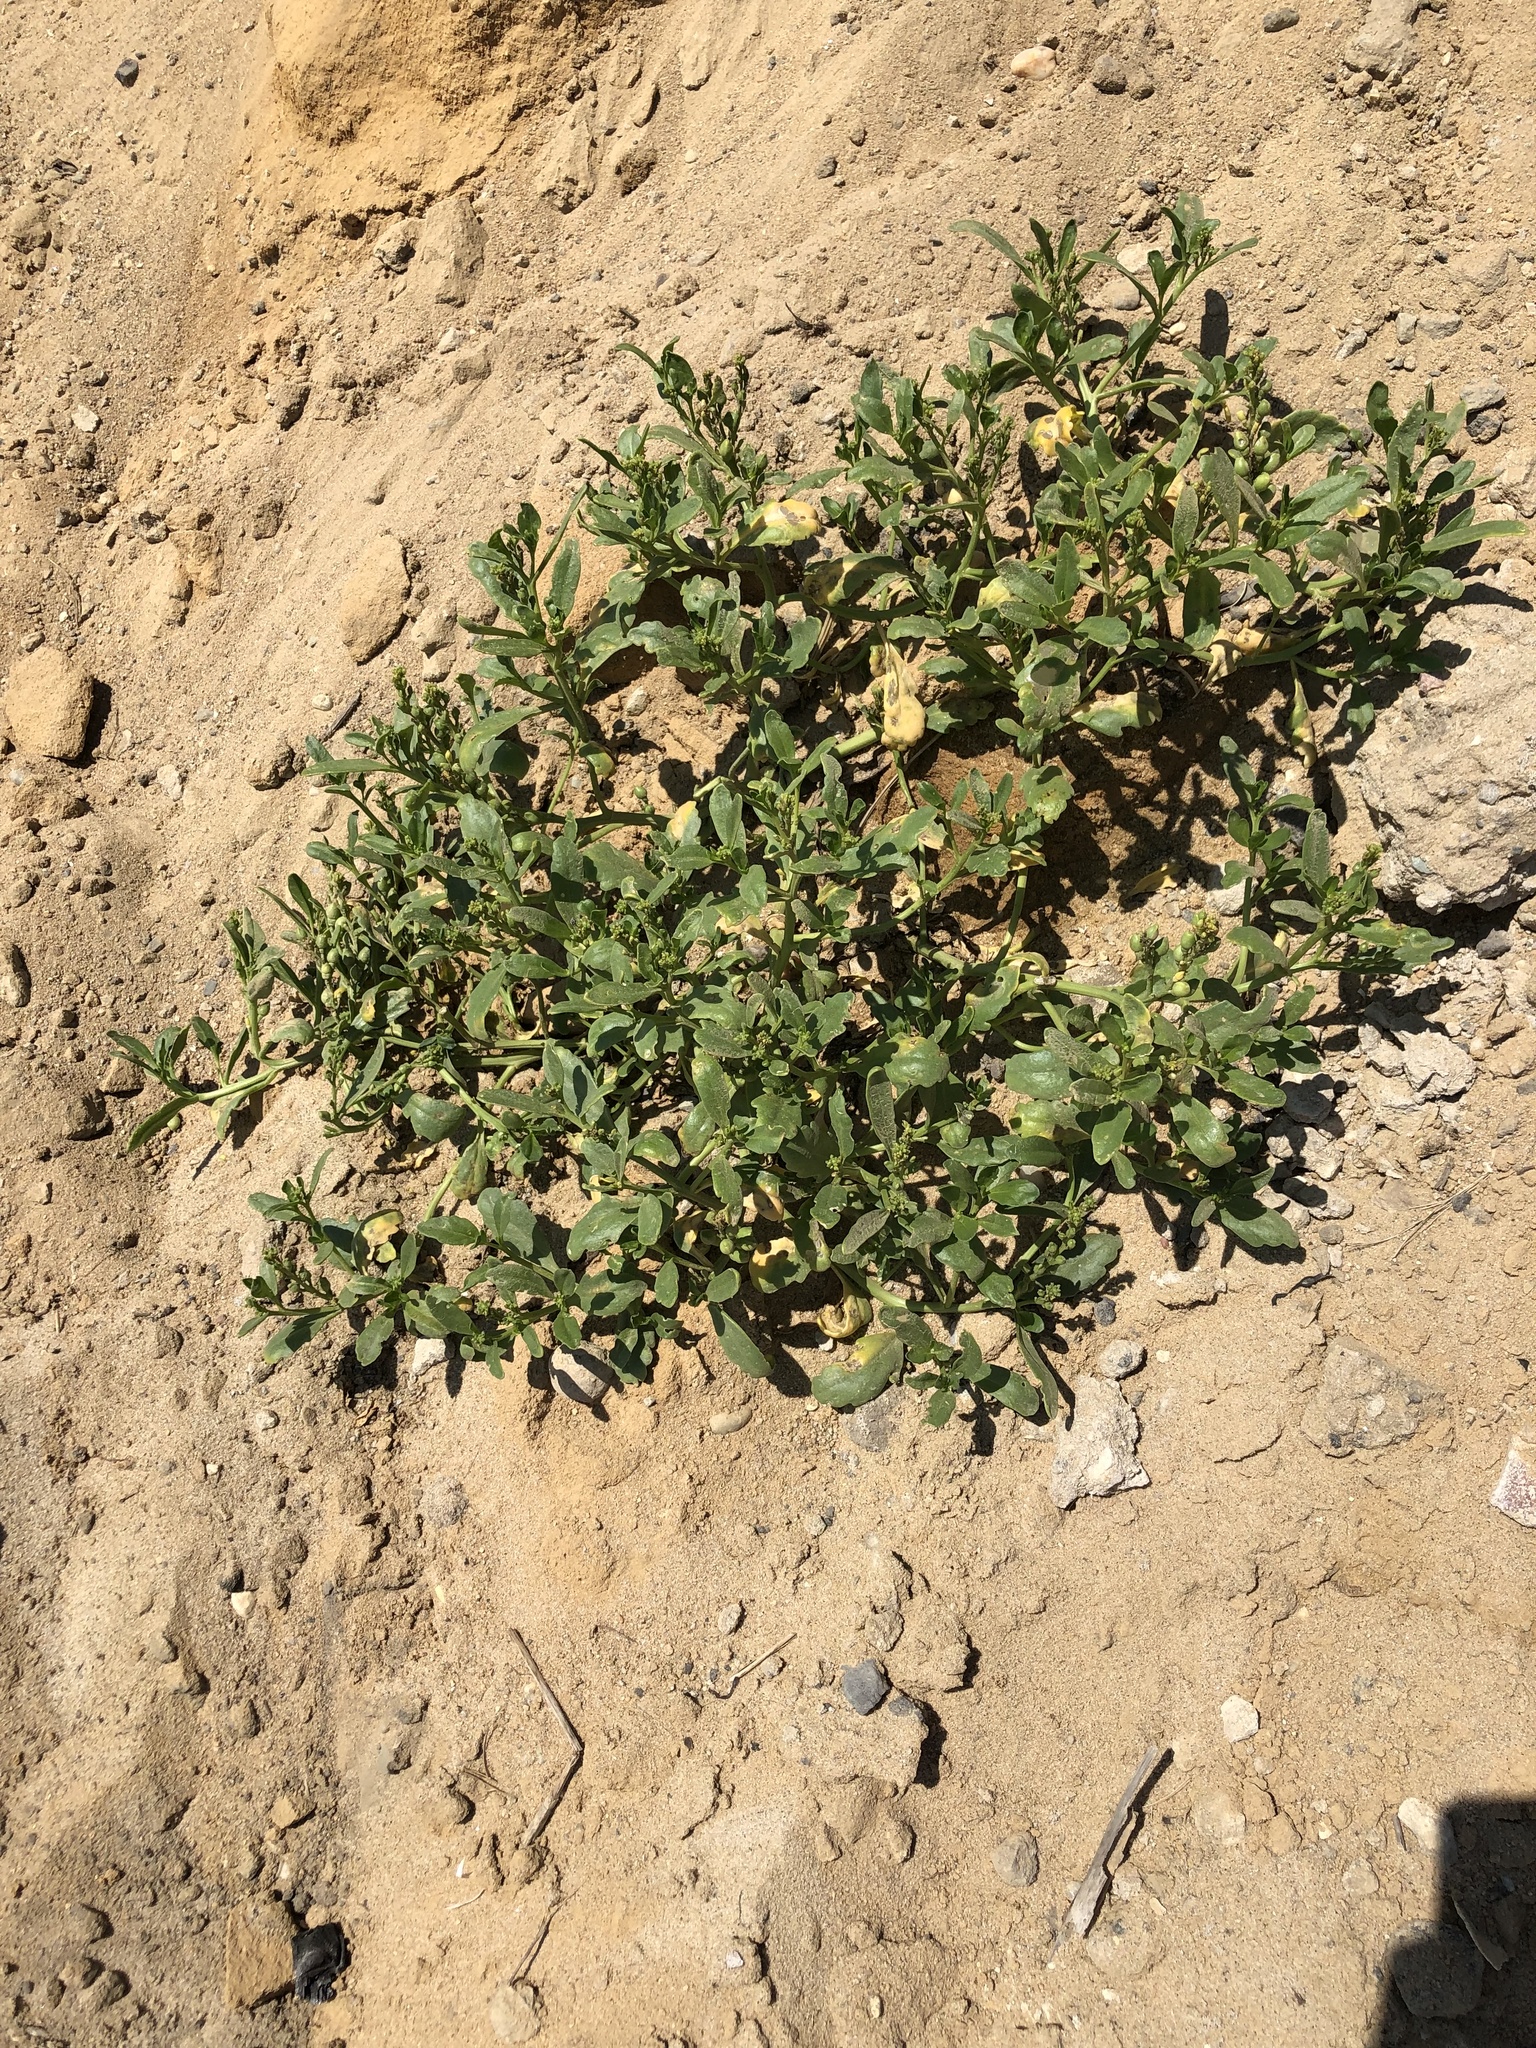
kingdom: Plantae
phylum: Tracheophyta
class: Magnoliopsida
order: Brassicales
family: Brassicaceae
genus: Cakile
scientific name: Cakile edentula
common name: American sea rocket
